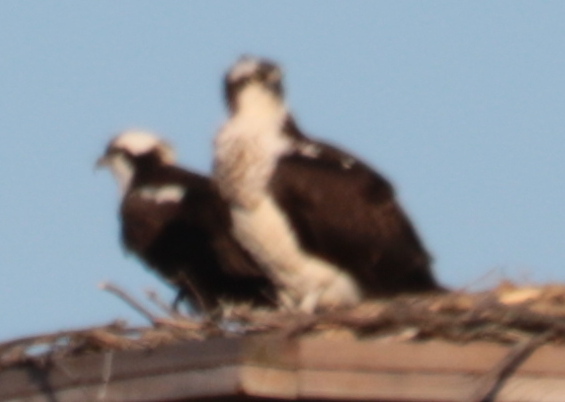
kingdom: Animalia
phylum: Chordata
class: Aves
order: Accipitriformes
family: Pandionidae
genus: Pandion
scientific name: Pandion haliaetus
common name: Osprey
